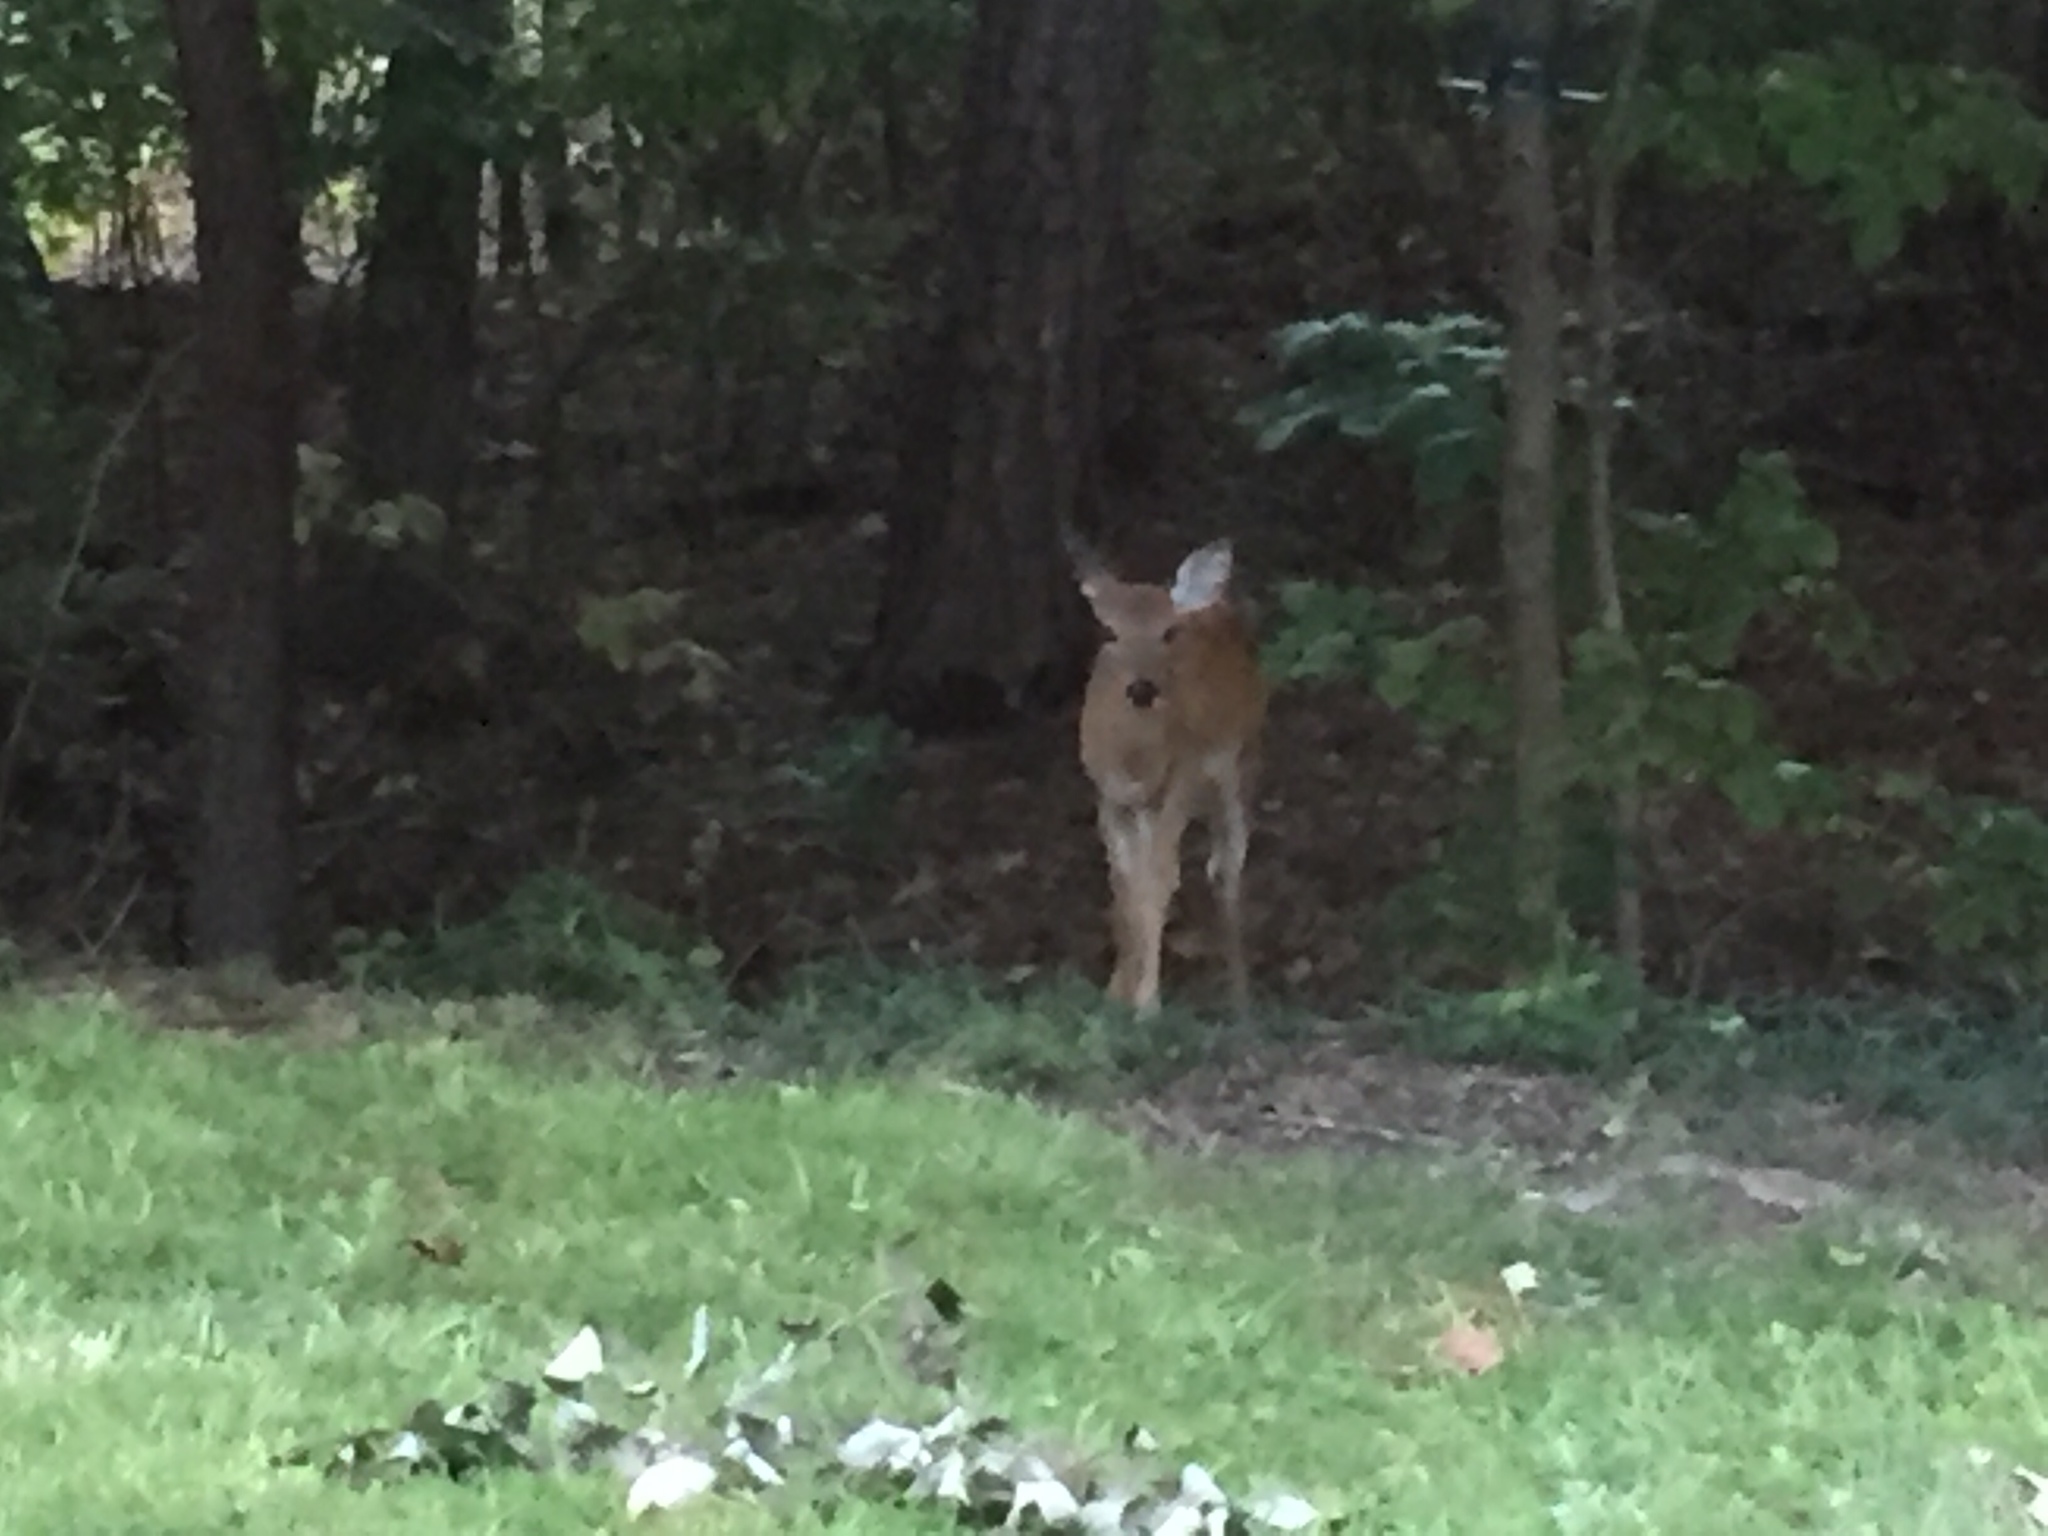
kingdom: Animalia
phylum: Chordata
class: Mammalia
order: Artiodactyla
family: Cervidae
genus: Odocoileus
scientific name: Odocoileus virginianus
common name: White-tailed deer
